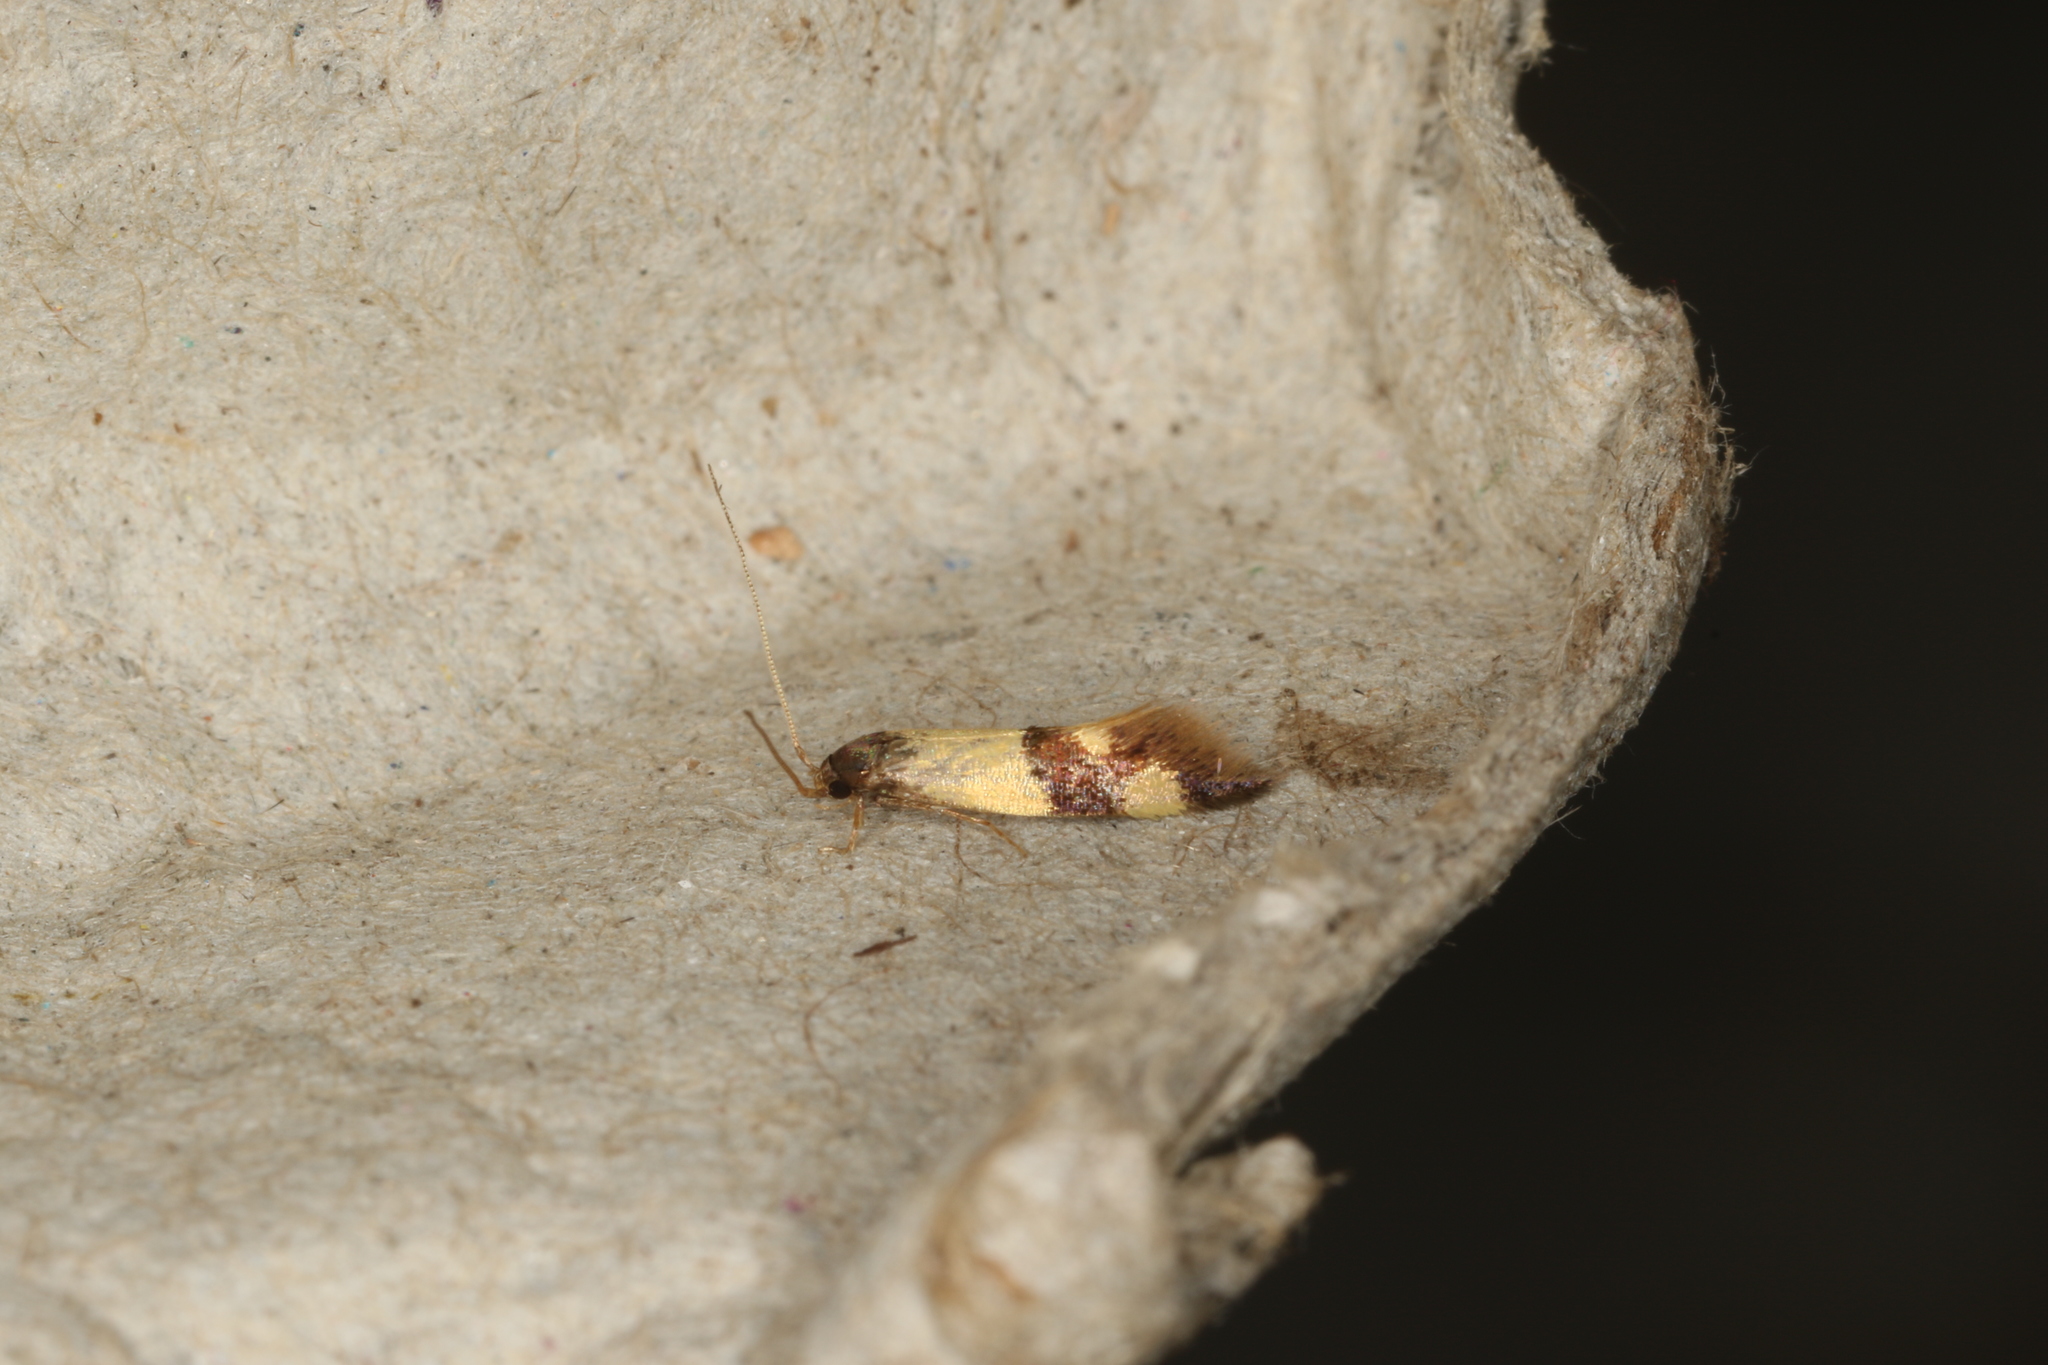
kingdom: Animalia
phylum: Arthropoda
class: Insecta
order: Lepidoptera
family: Tineidae
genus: Opogona
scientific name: Opogona comptella
